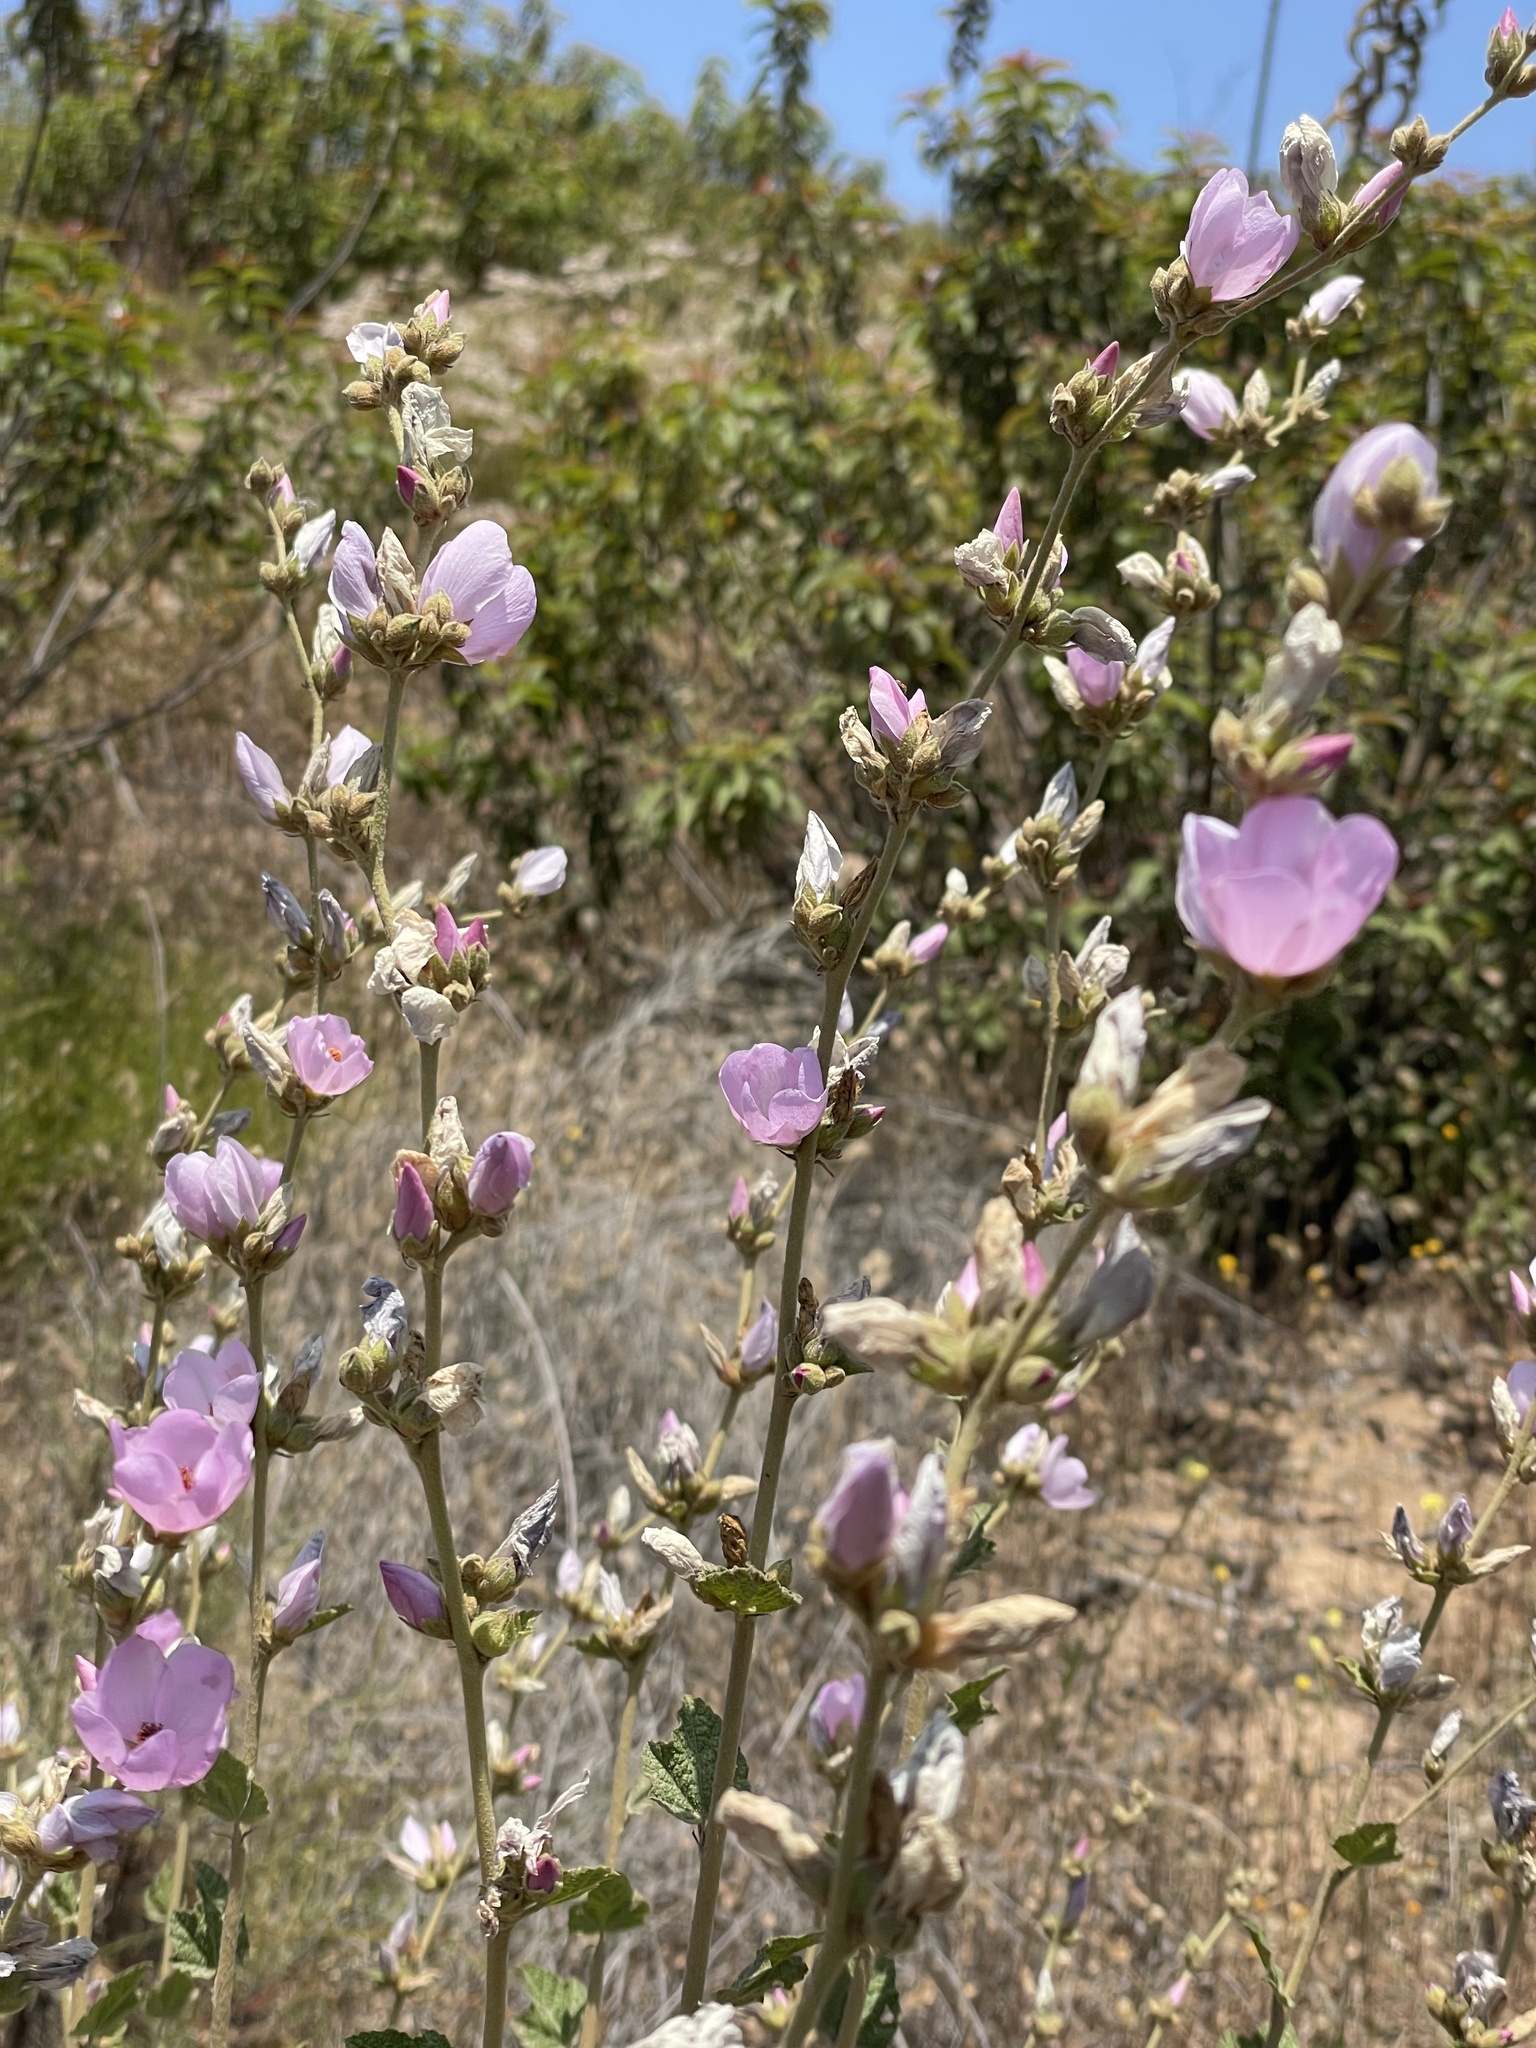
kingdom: Plantae
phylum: Tracheophyta
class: Magnoliopsida
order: Malvales
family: Malvaceae
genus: Malacothamnus
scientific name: Malacothamnus fasciculatus
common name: Sant cruz island bush-mallow
